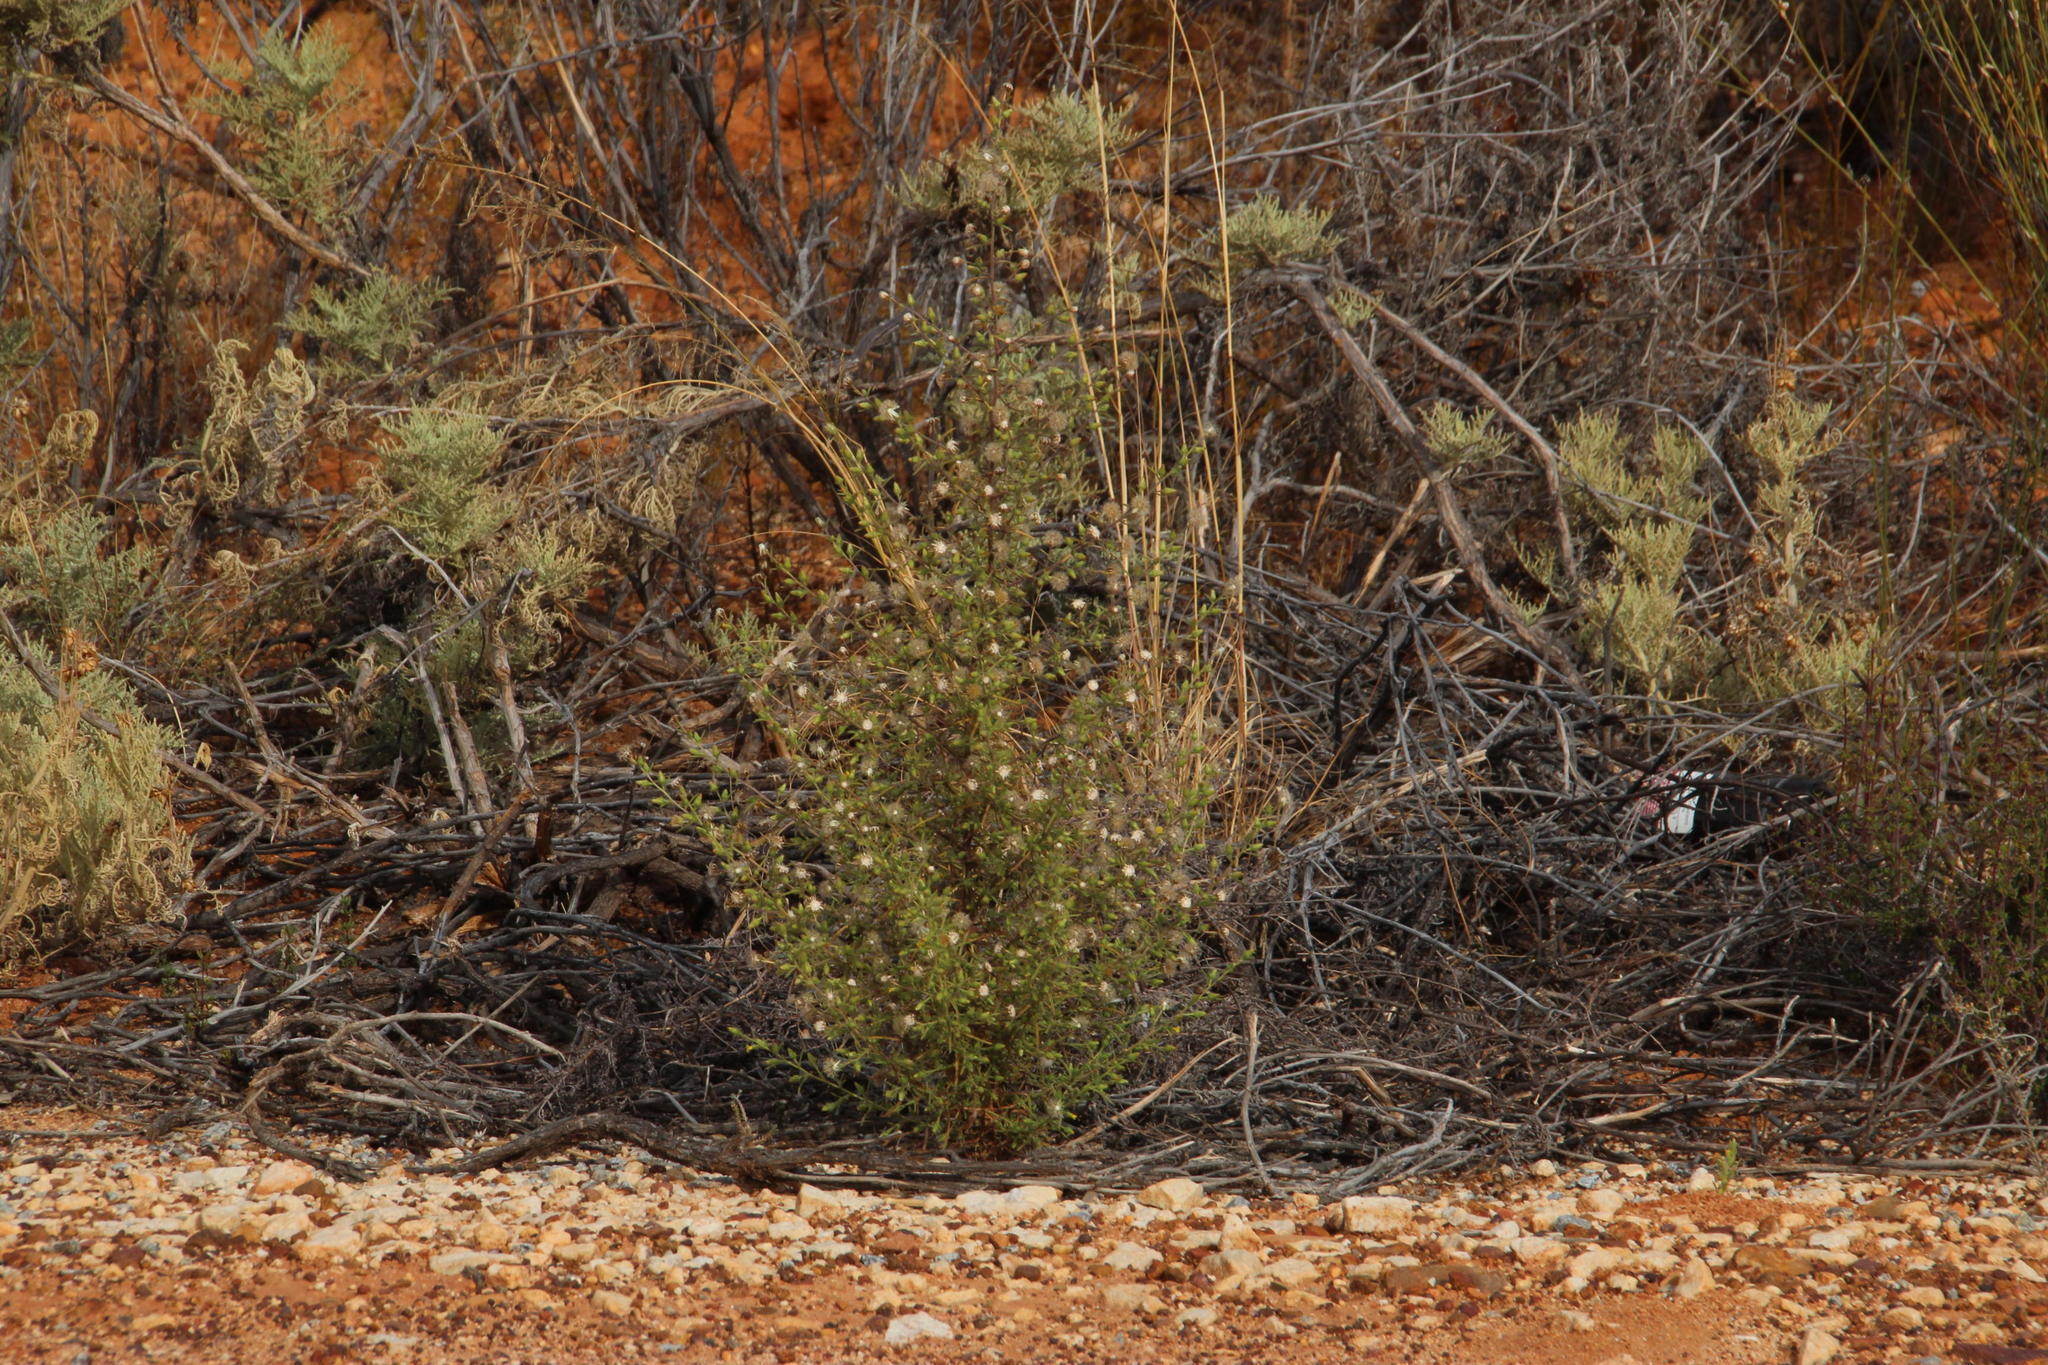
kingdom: Plantae
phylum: Tracheophyta
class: Magnoliopsida
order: Asterales
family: Asteraceae
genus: Chrysocoma
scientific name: Chrysocoma ciliata
